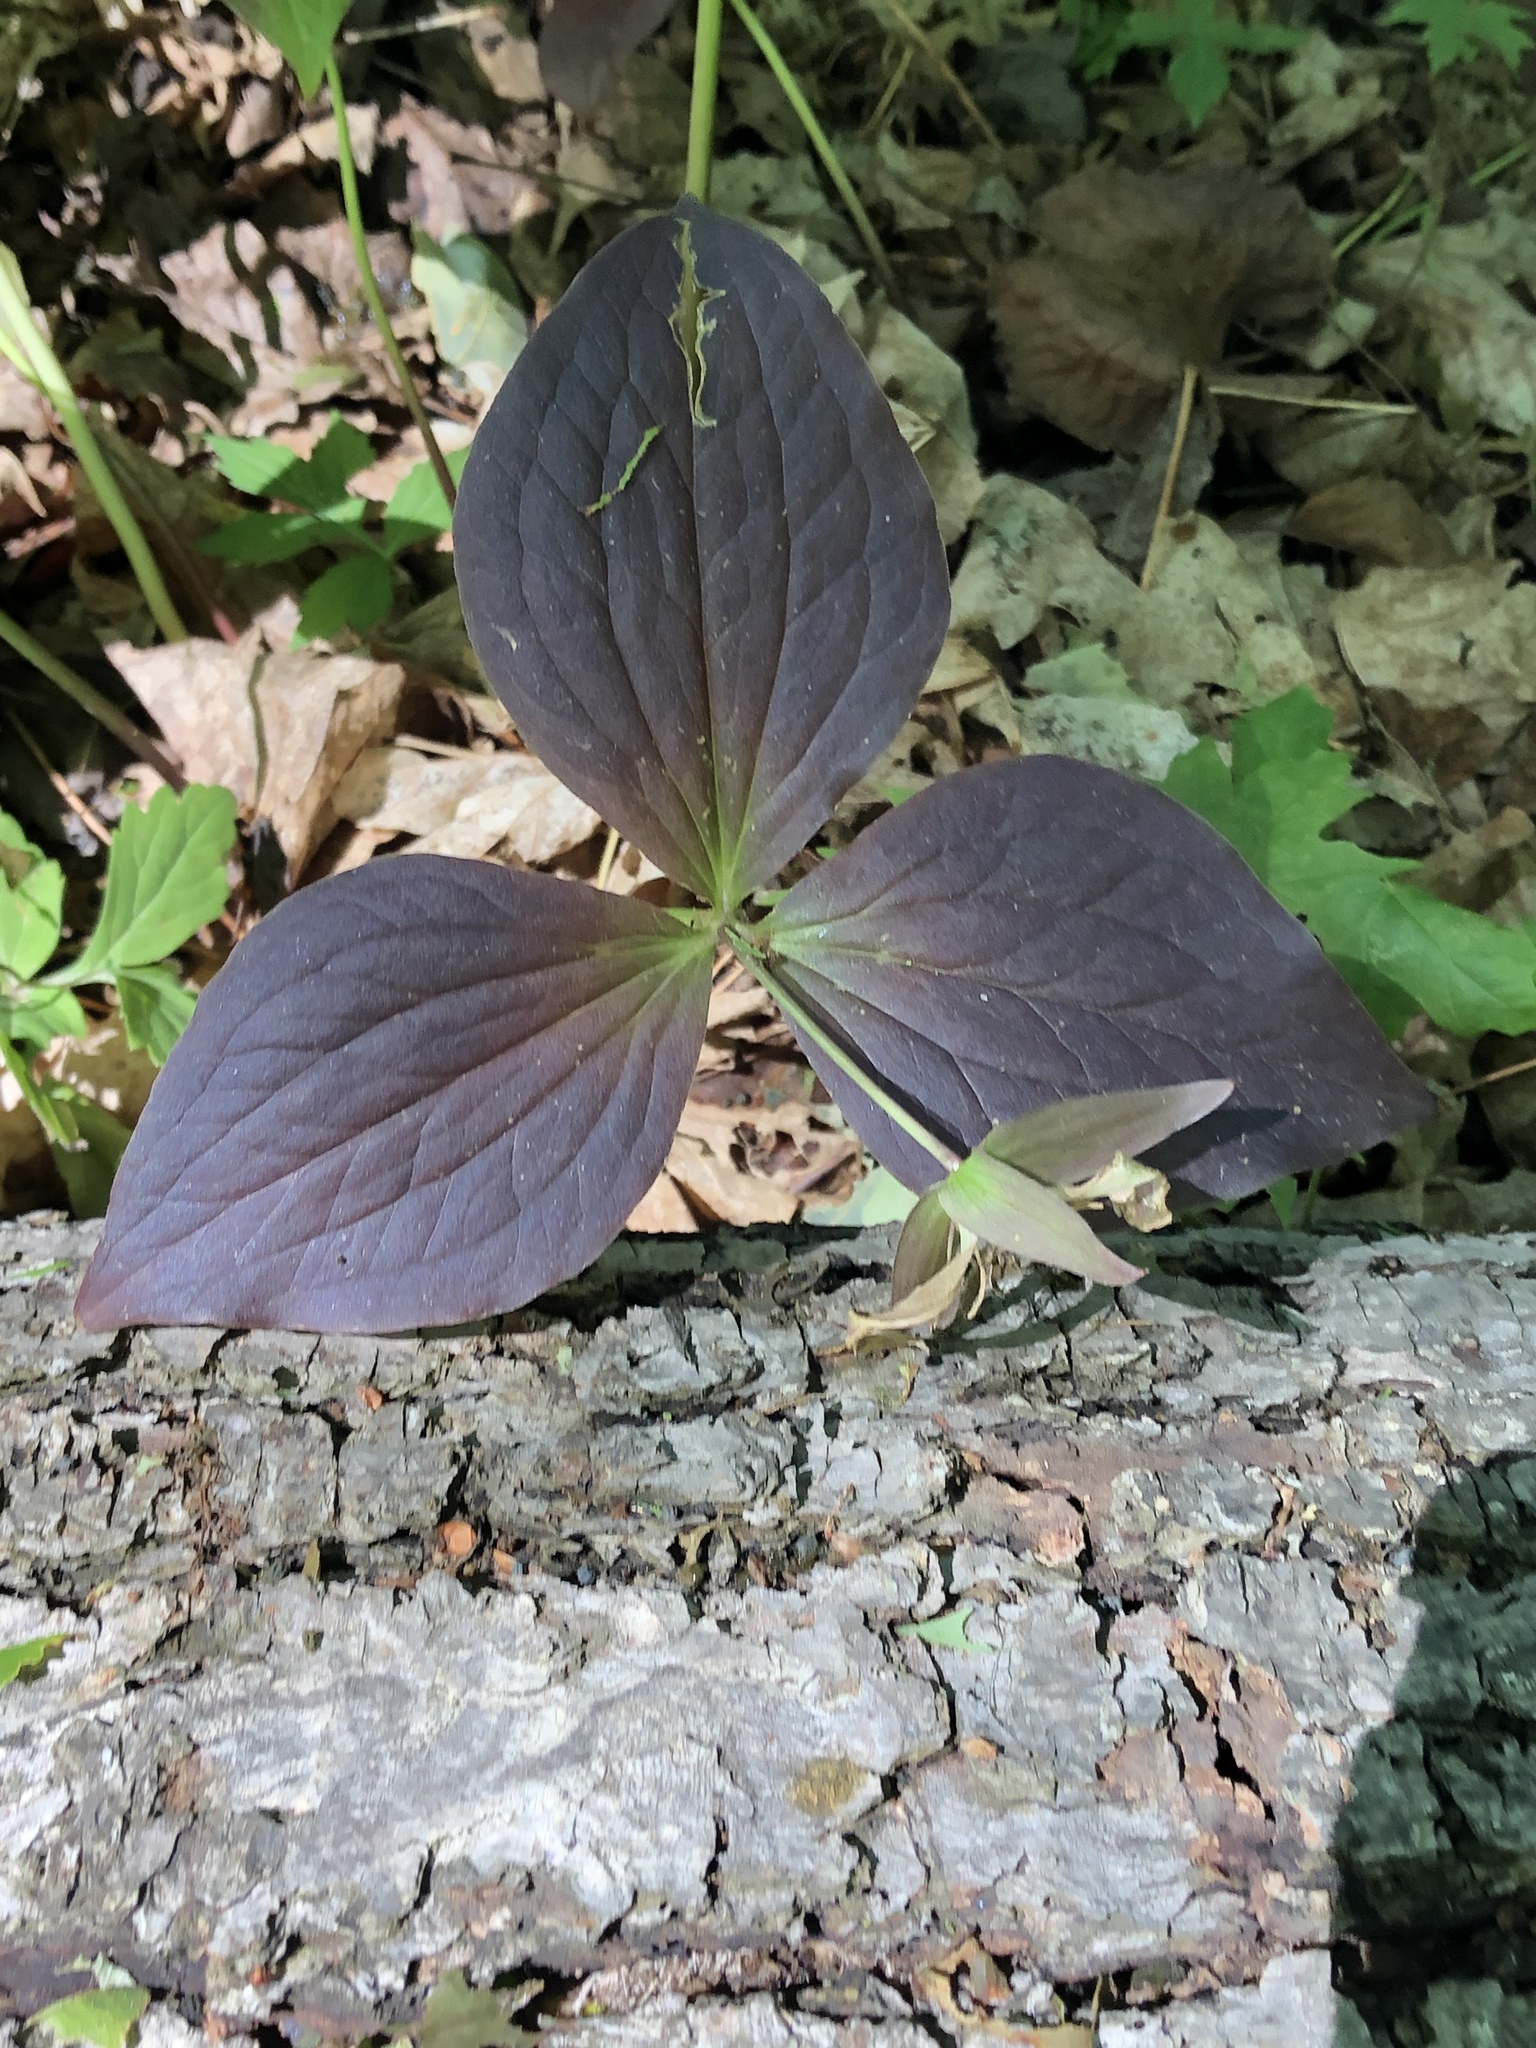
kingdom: Plantae
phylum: Tracheophyta
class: Liliopsida
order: Liliales
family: Melanthiaceae
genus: Trillium
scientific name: Trillium grandiflorum
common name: Great white trillium
